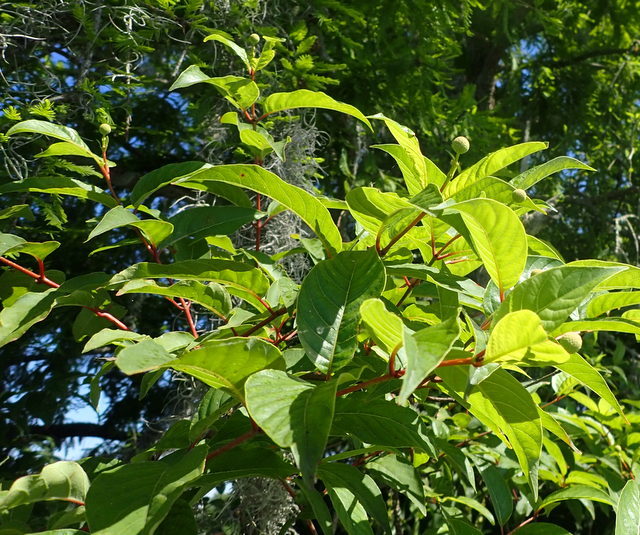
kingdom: Plantae
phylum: Tracheophyta
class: Magnoliopsida
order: Gentianales
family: Rubiaceae
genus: Cephalanthus
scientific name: Cephalanthus occidentalis
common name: Button-willow
